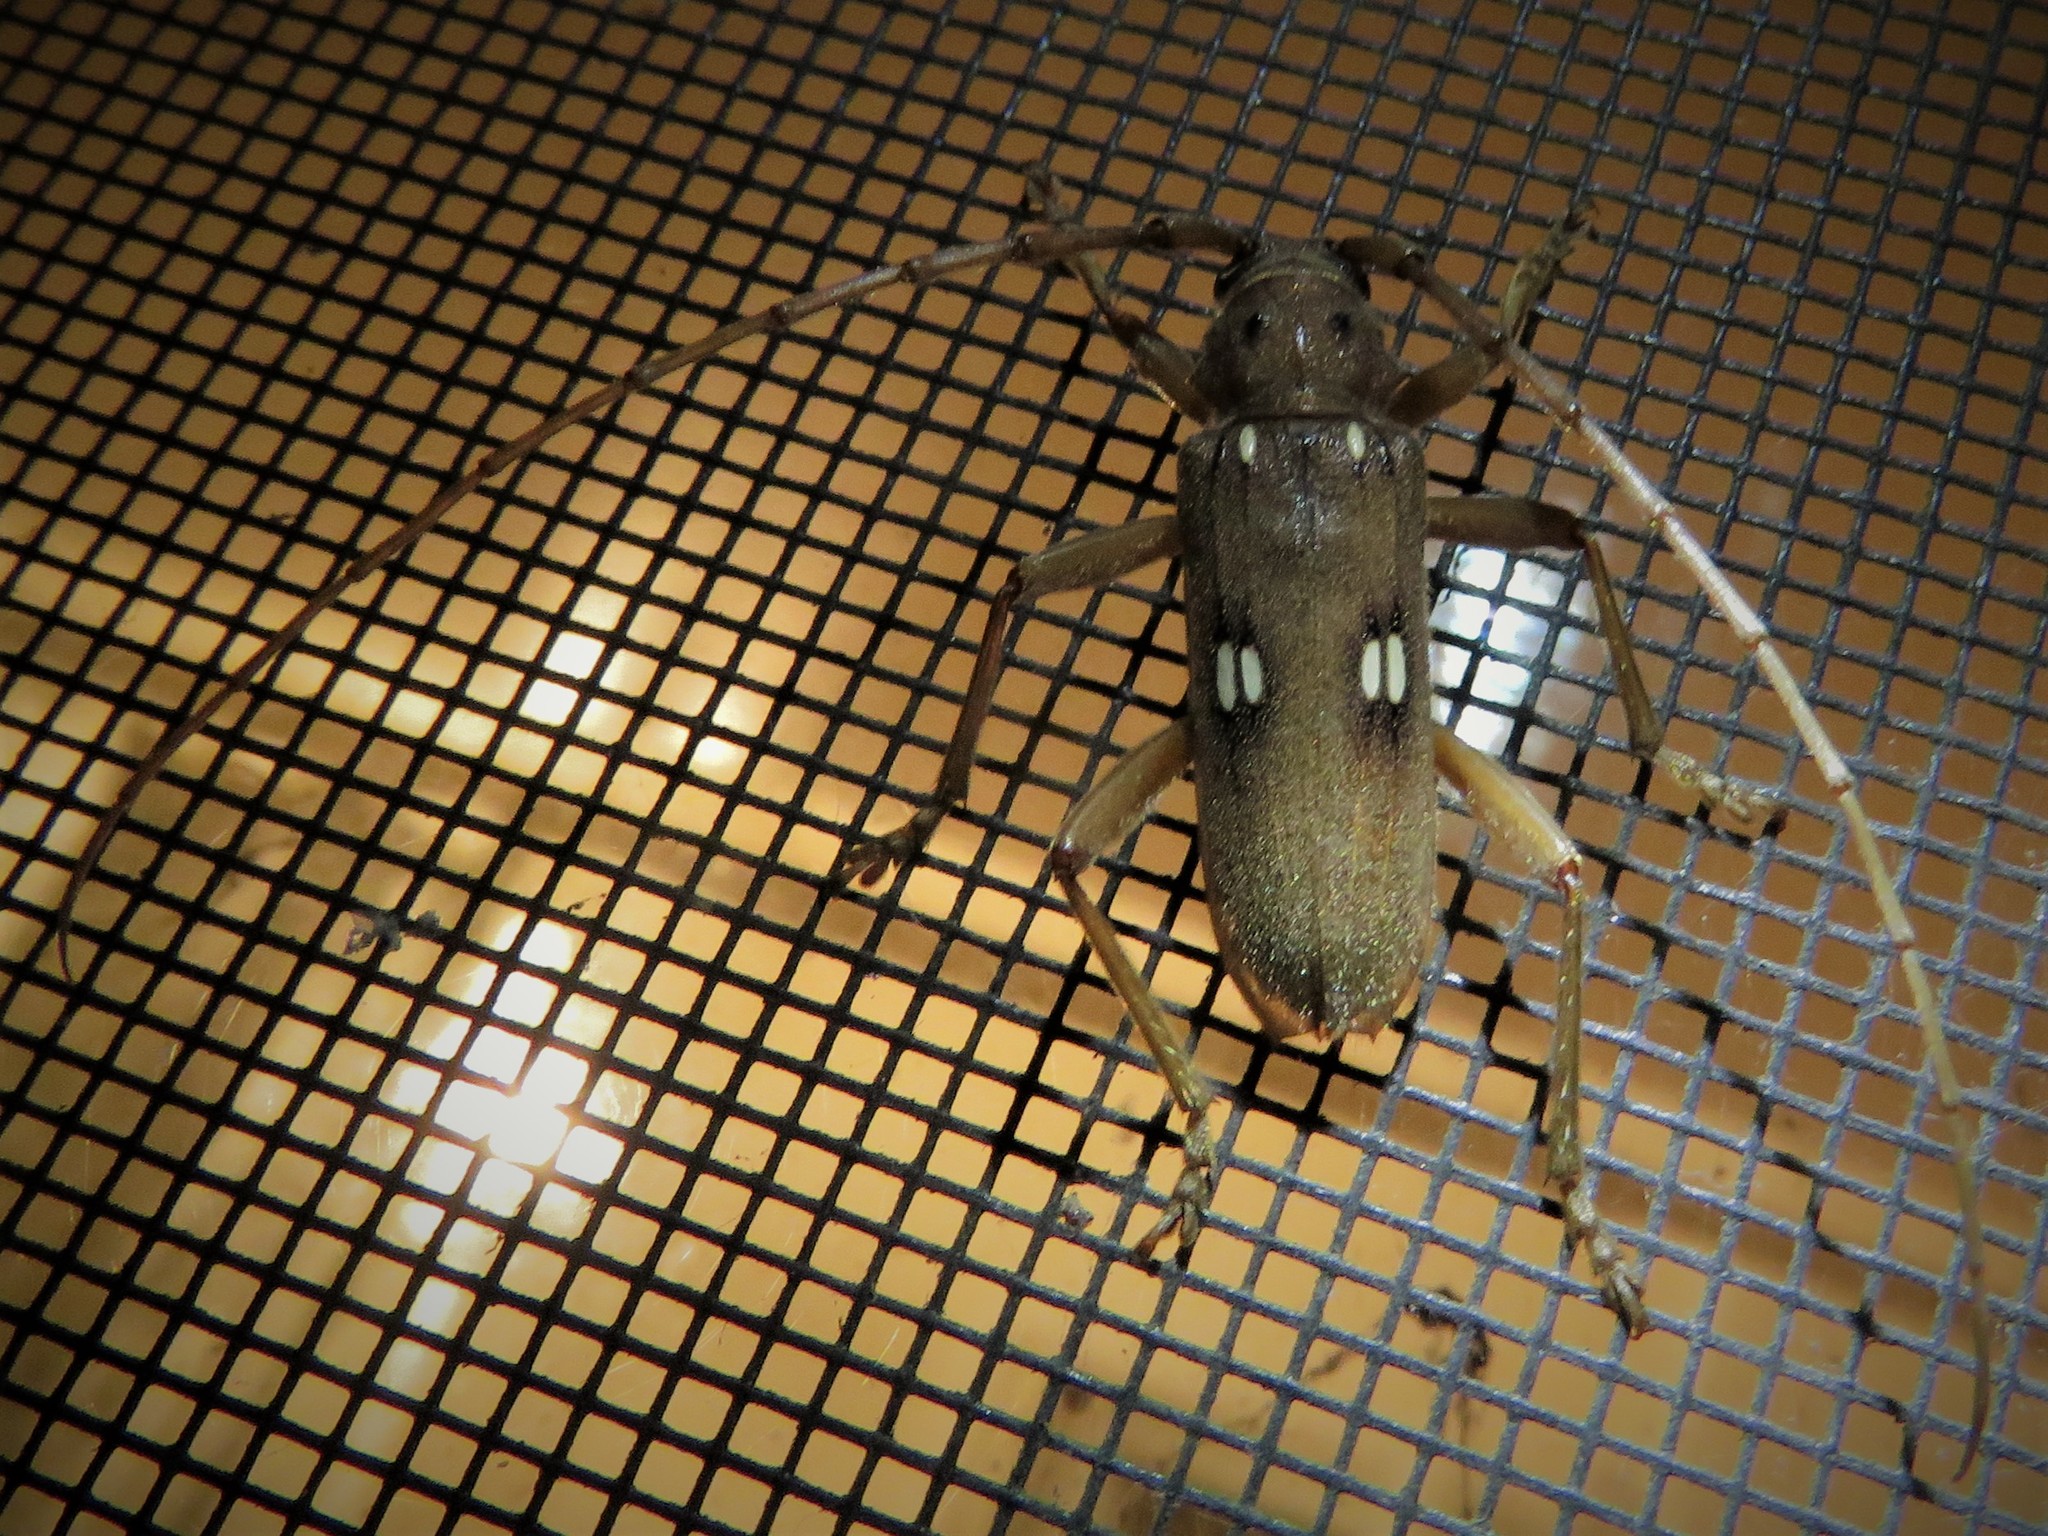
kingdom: Animalia
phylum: Arthropoda
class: Insecta
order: Coleoptera
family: Cerambycidae
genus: Eburia
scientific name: Eburia haldemani
